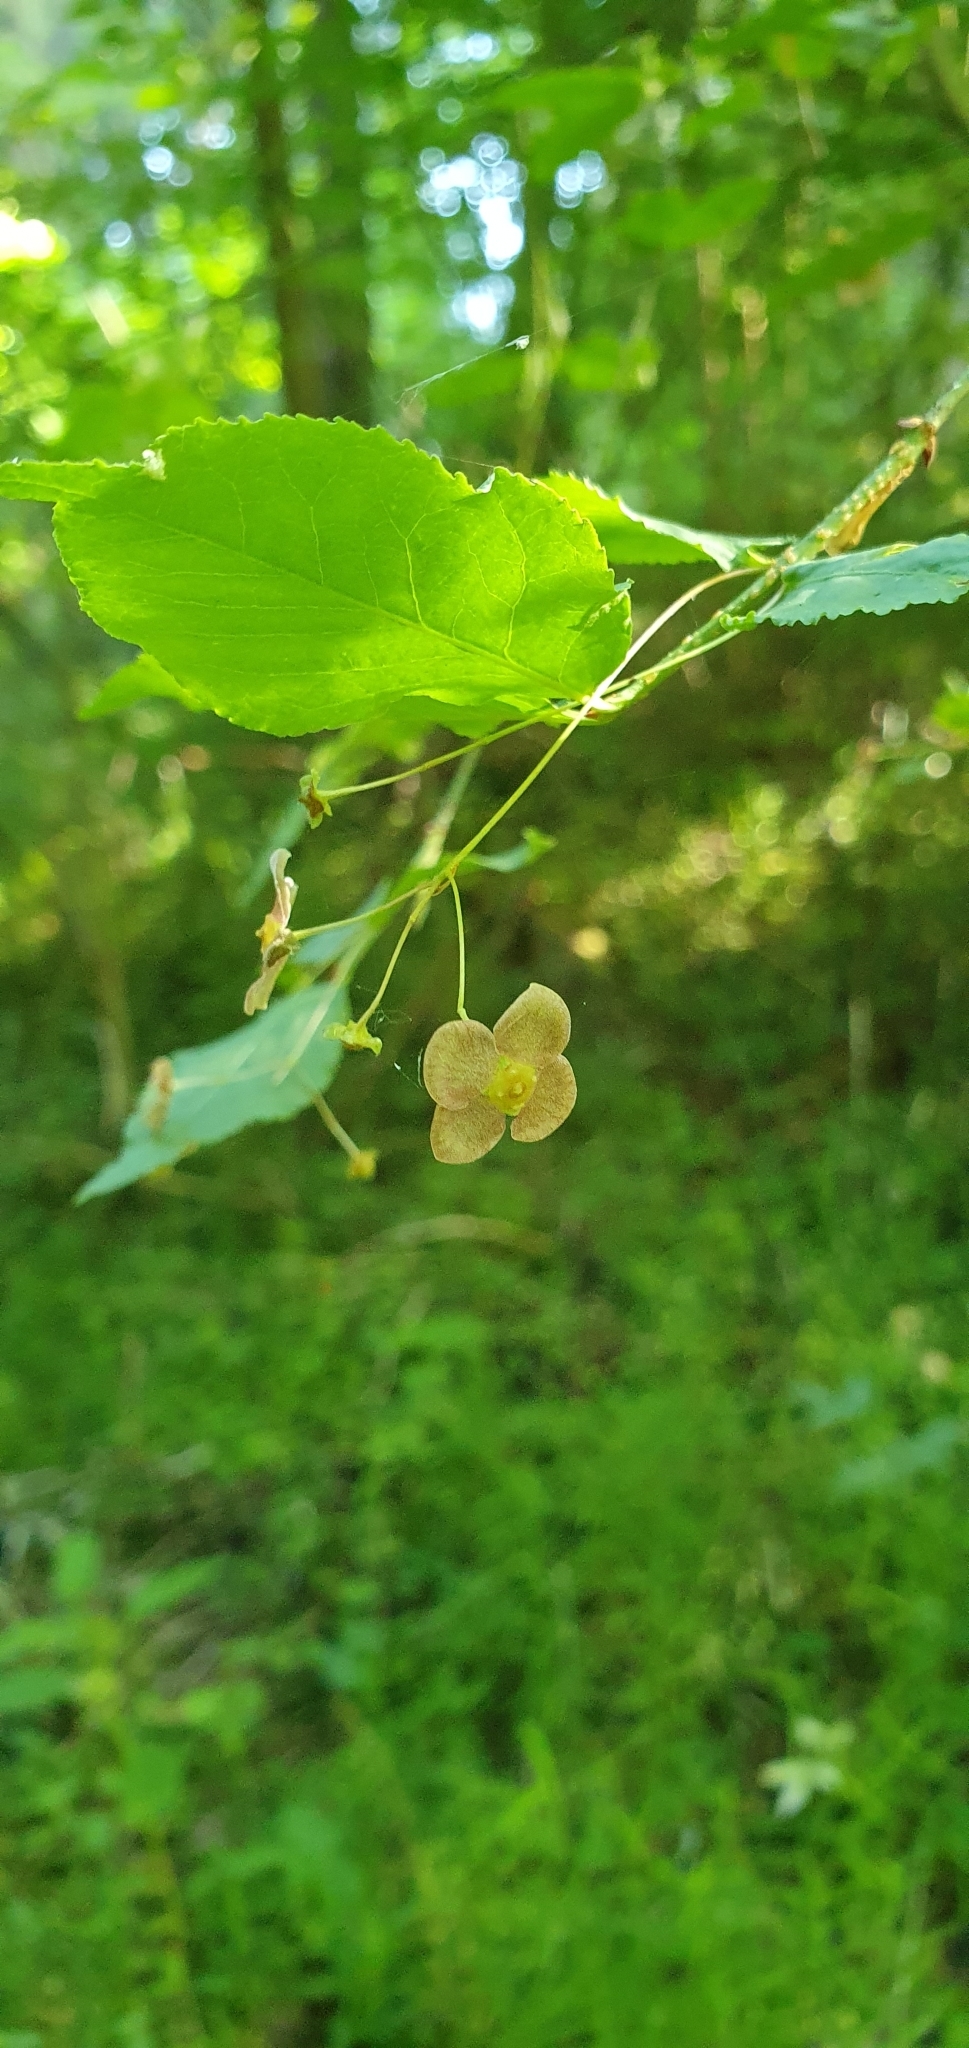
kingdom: Plantae
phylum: Tracheophyta
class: Magnoliopsida
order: Celastrales
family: Celastraceae
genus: Euonymus
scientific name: Euonymus verrucosus
